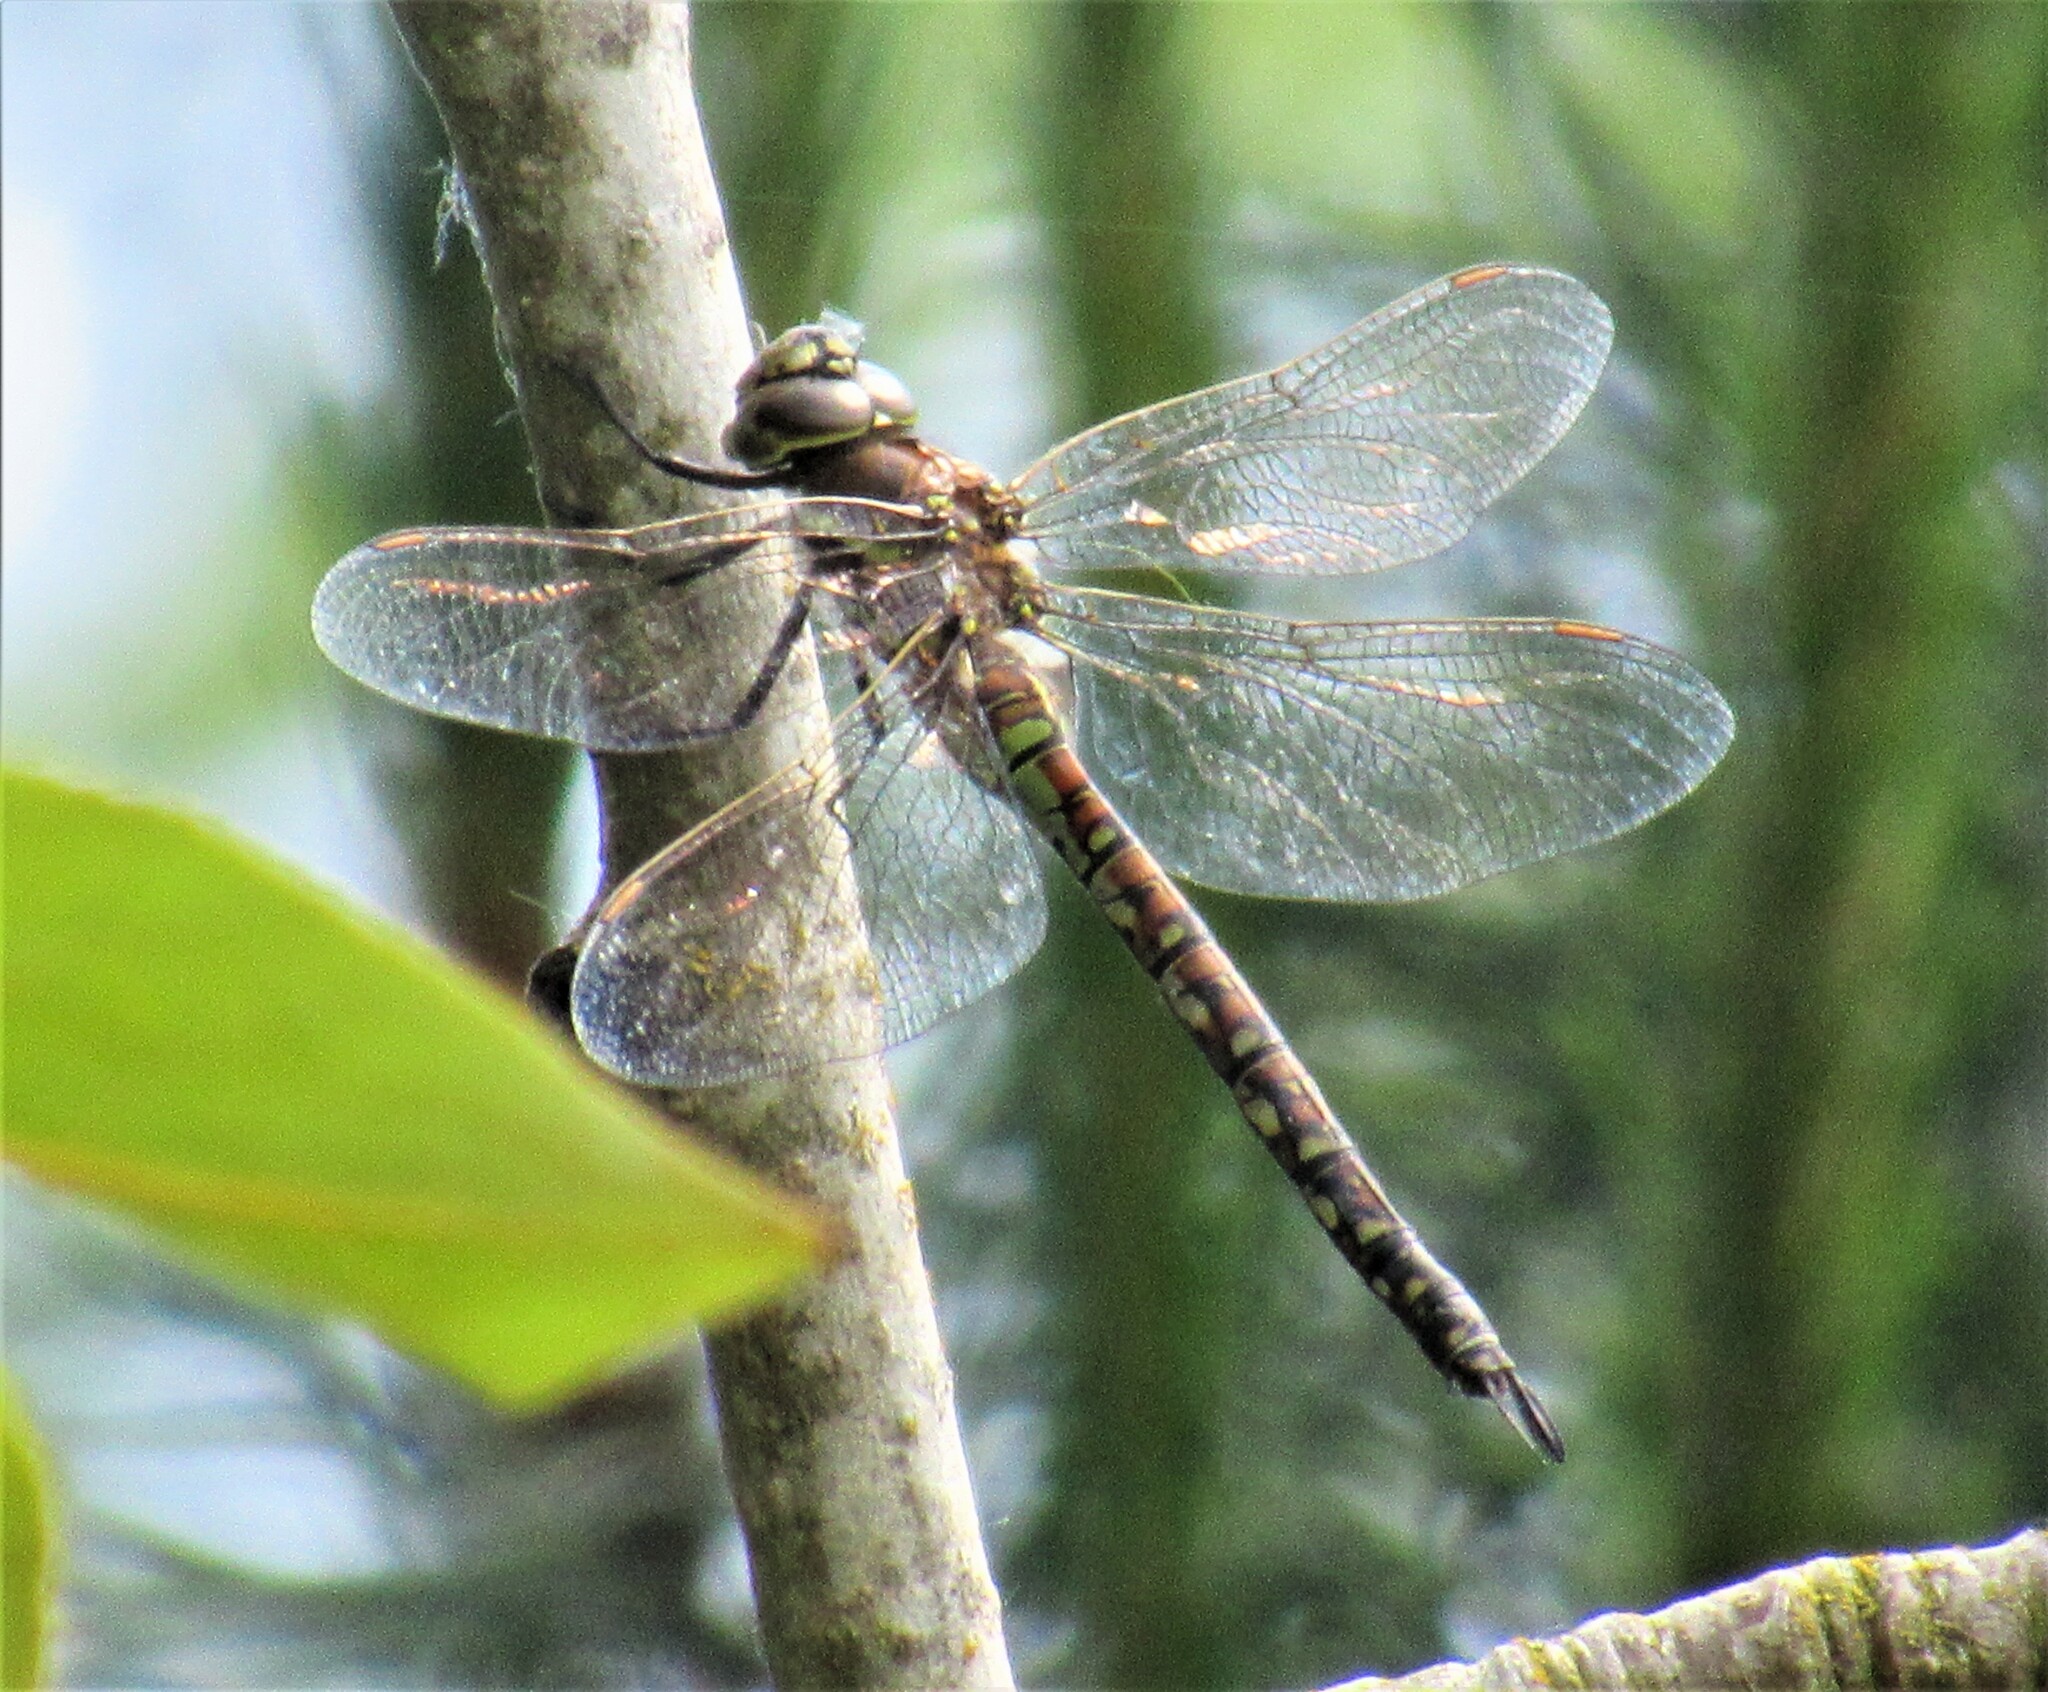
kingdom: Animalia
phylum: Arthropoda
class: Insecta
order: Odonata
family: Aeshnidae
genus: Rhionaeschna
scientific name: Rhionaeschna californica
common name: California darner
